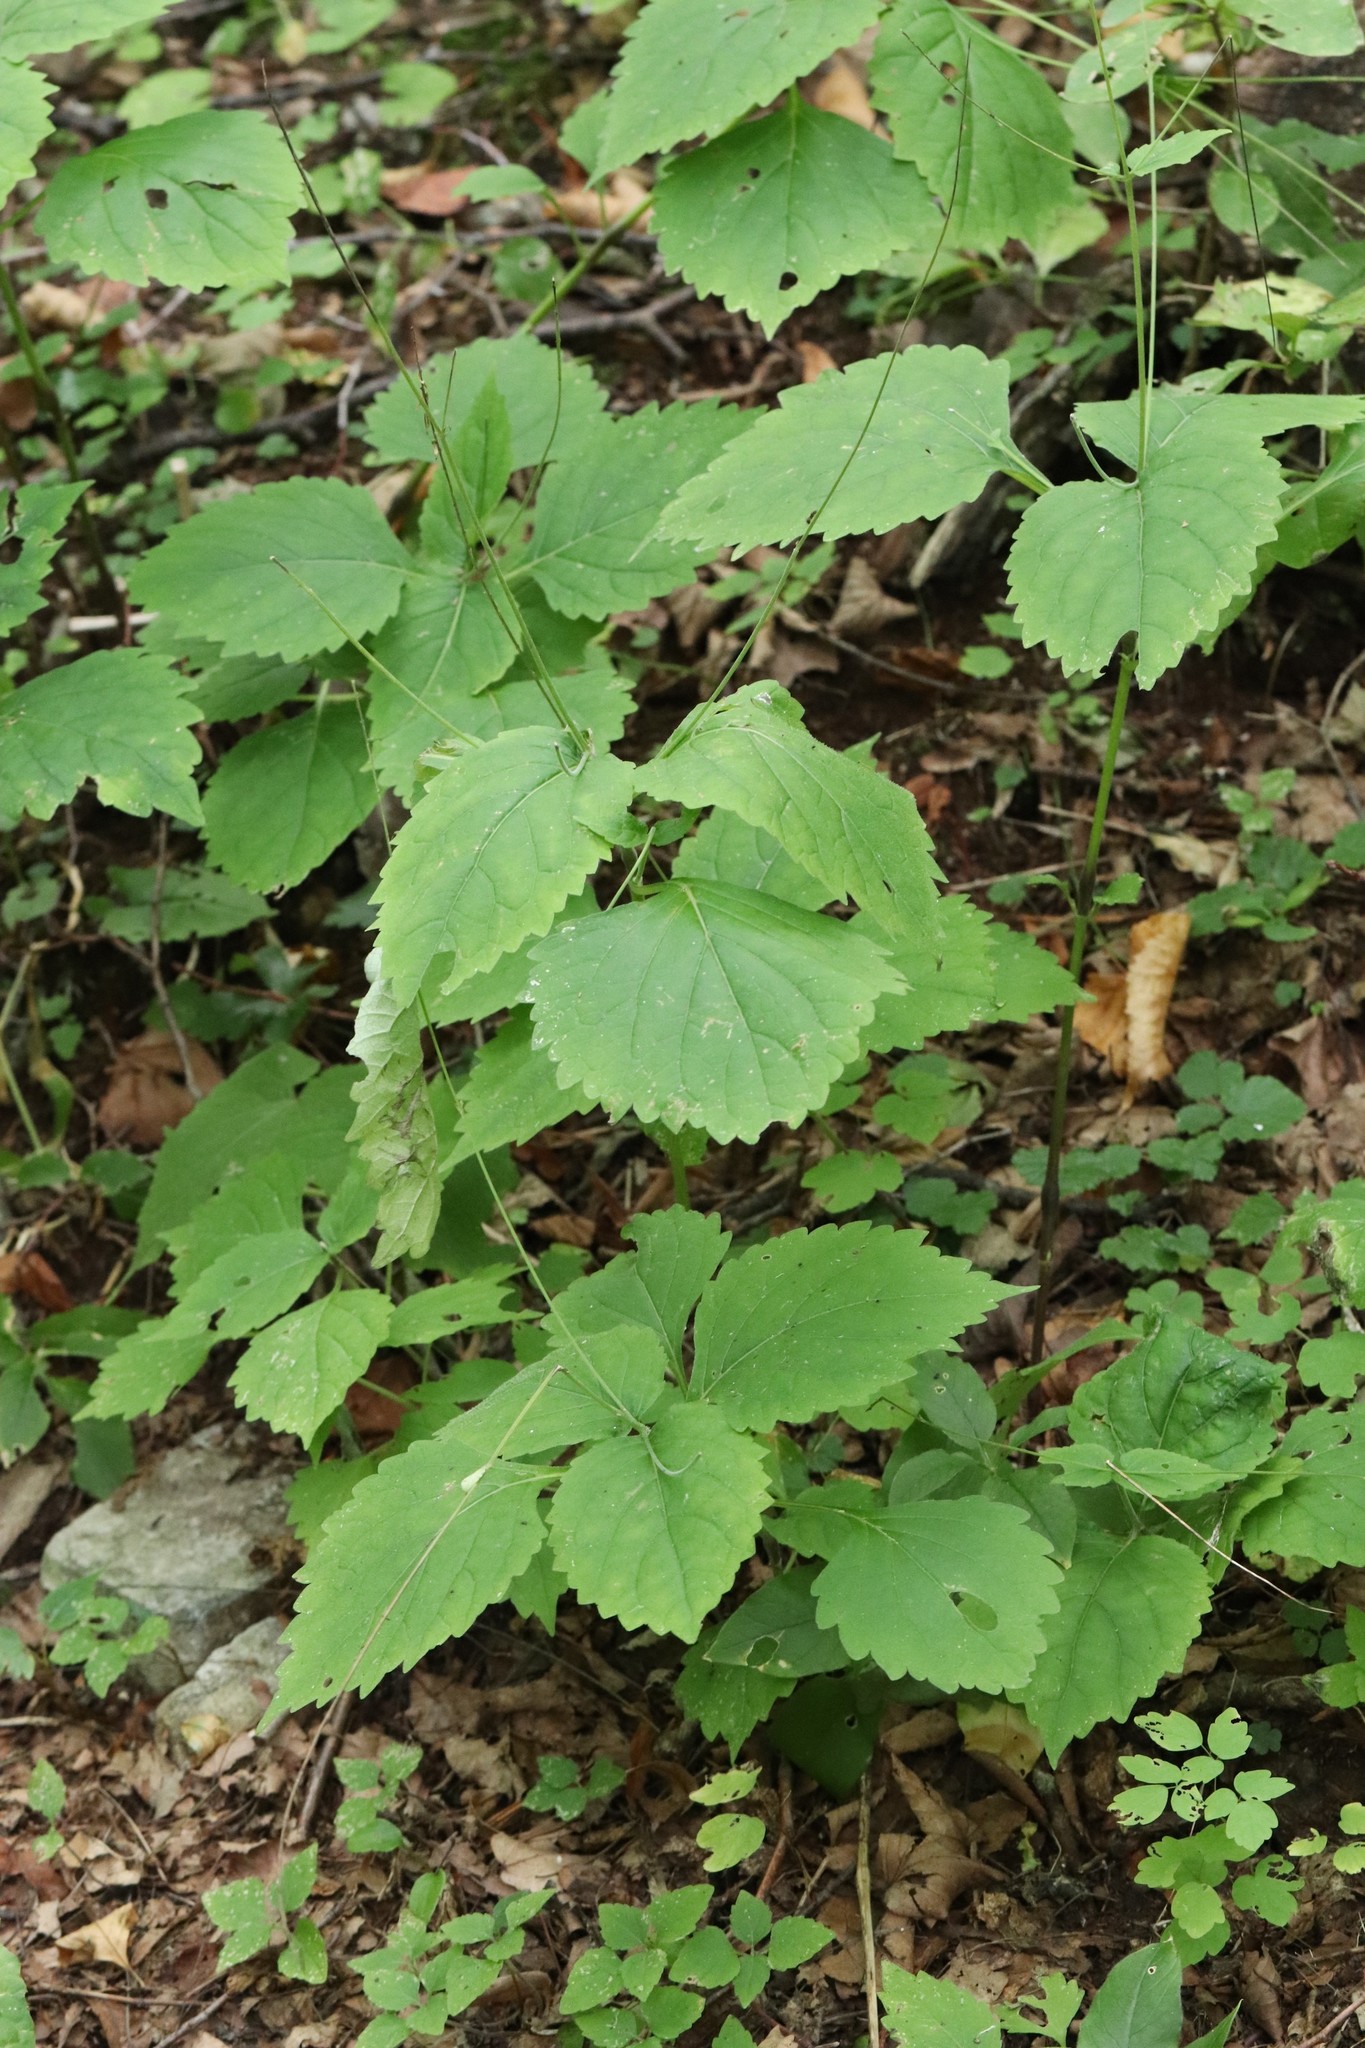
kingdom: Plantae
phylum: Tracheophyta
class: Magnoliopsida
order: Lamiales
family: Phrymaceae
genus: Phryma
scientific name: Phryma nana
